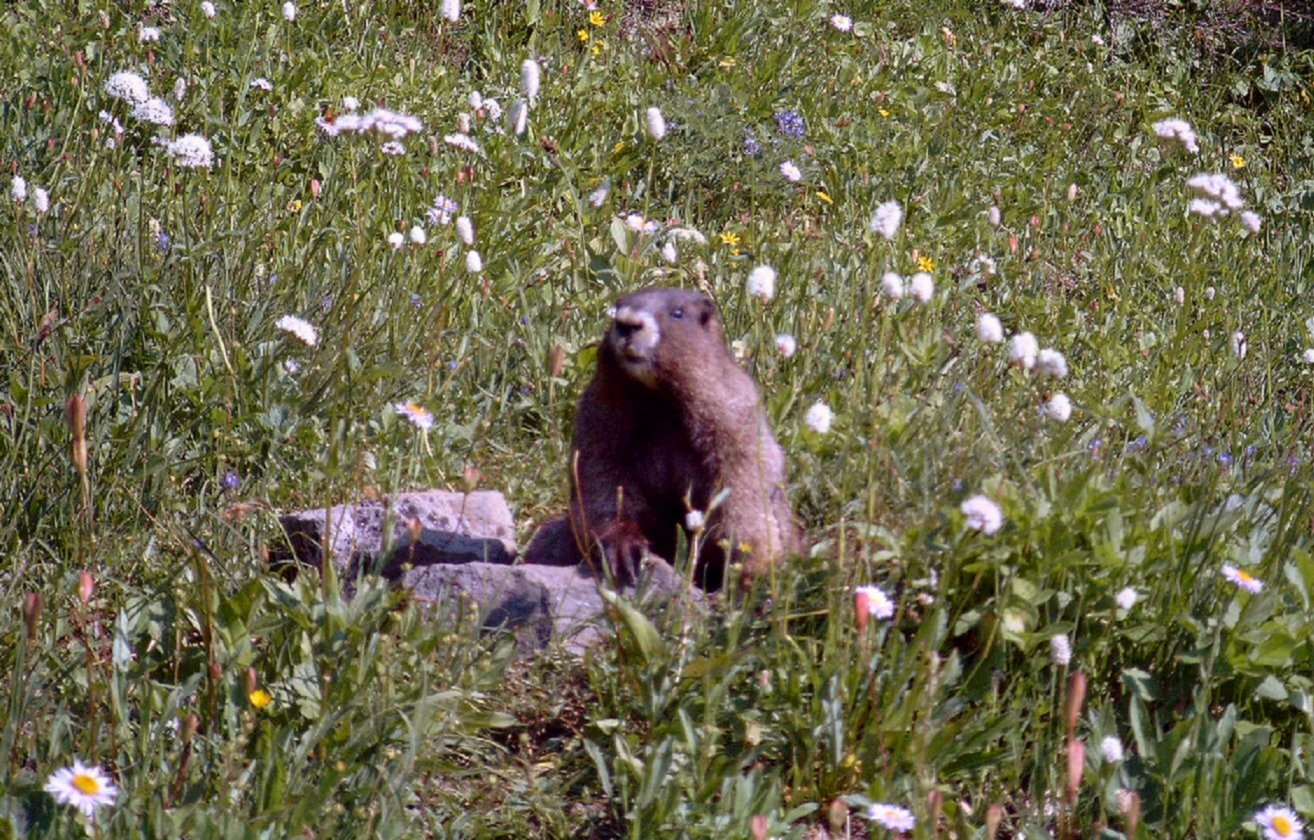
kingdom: Animalia
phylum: Chordata
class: Mammalia
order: Rodentia
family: Sciuridae
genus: Marmota
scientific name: Marmota caligata
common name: Hoary marmot
